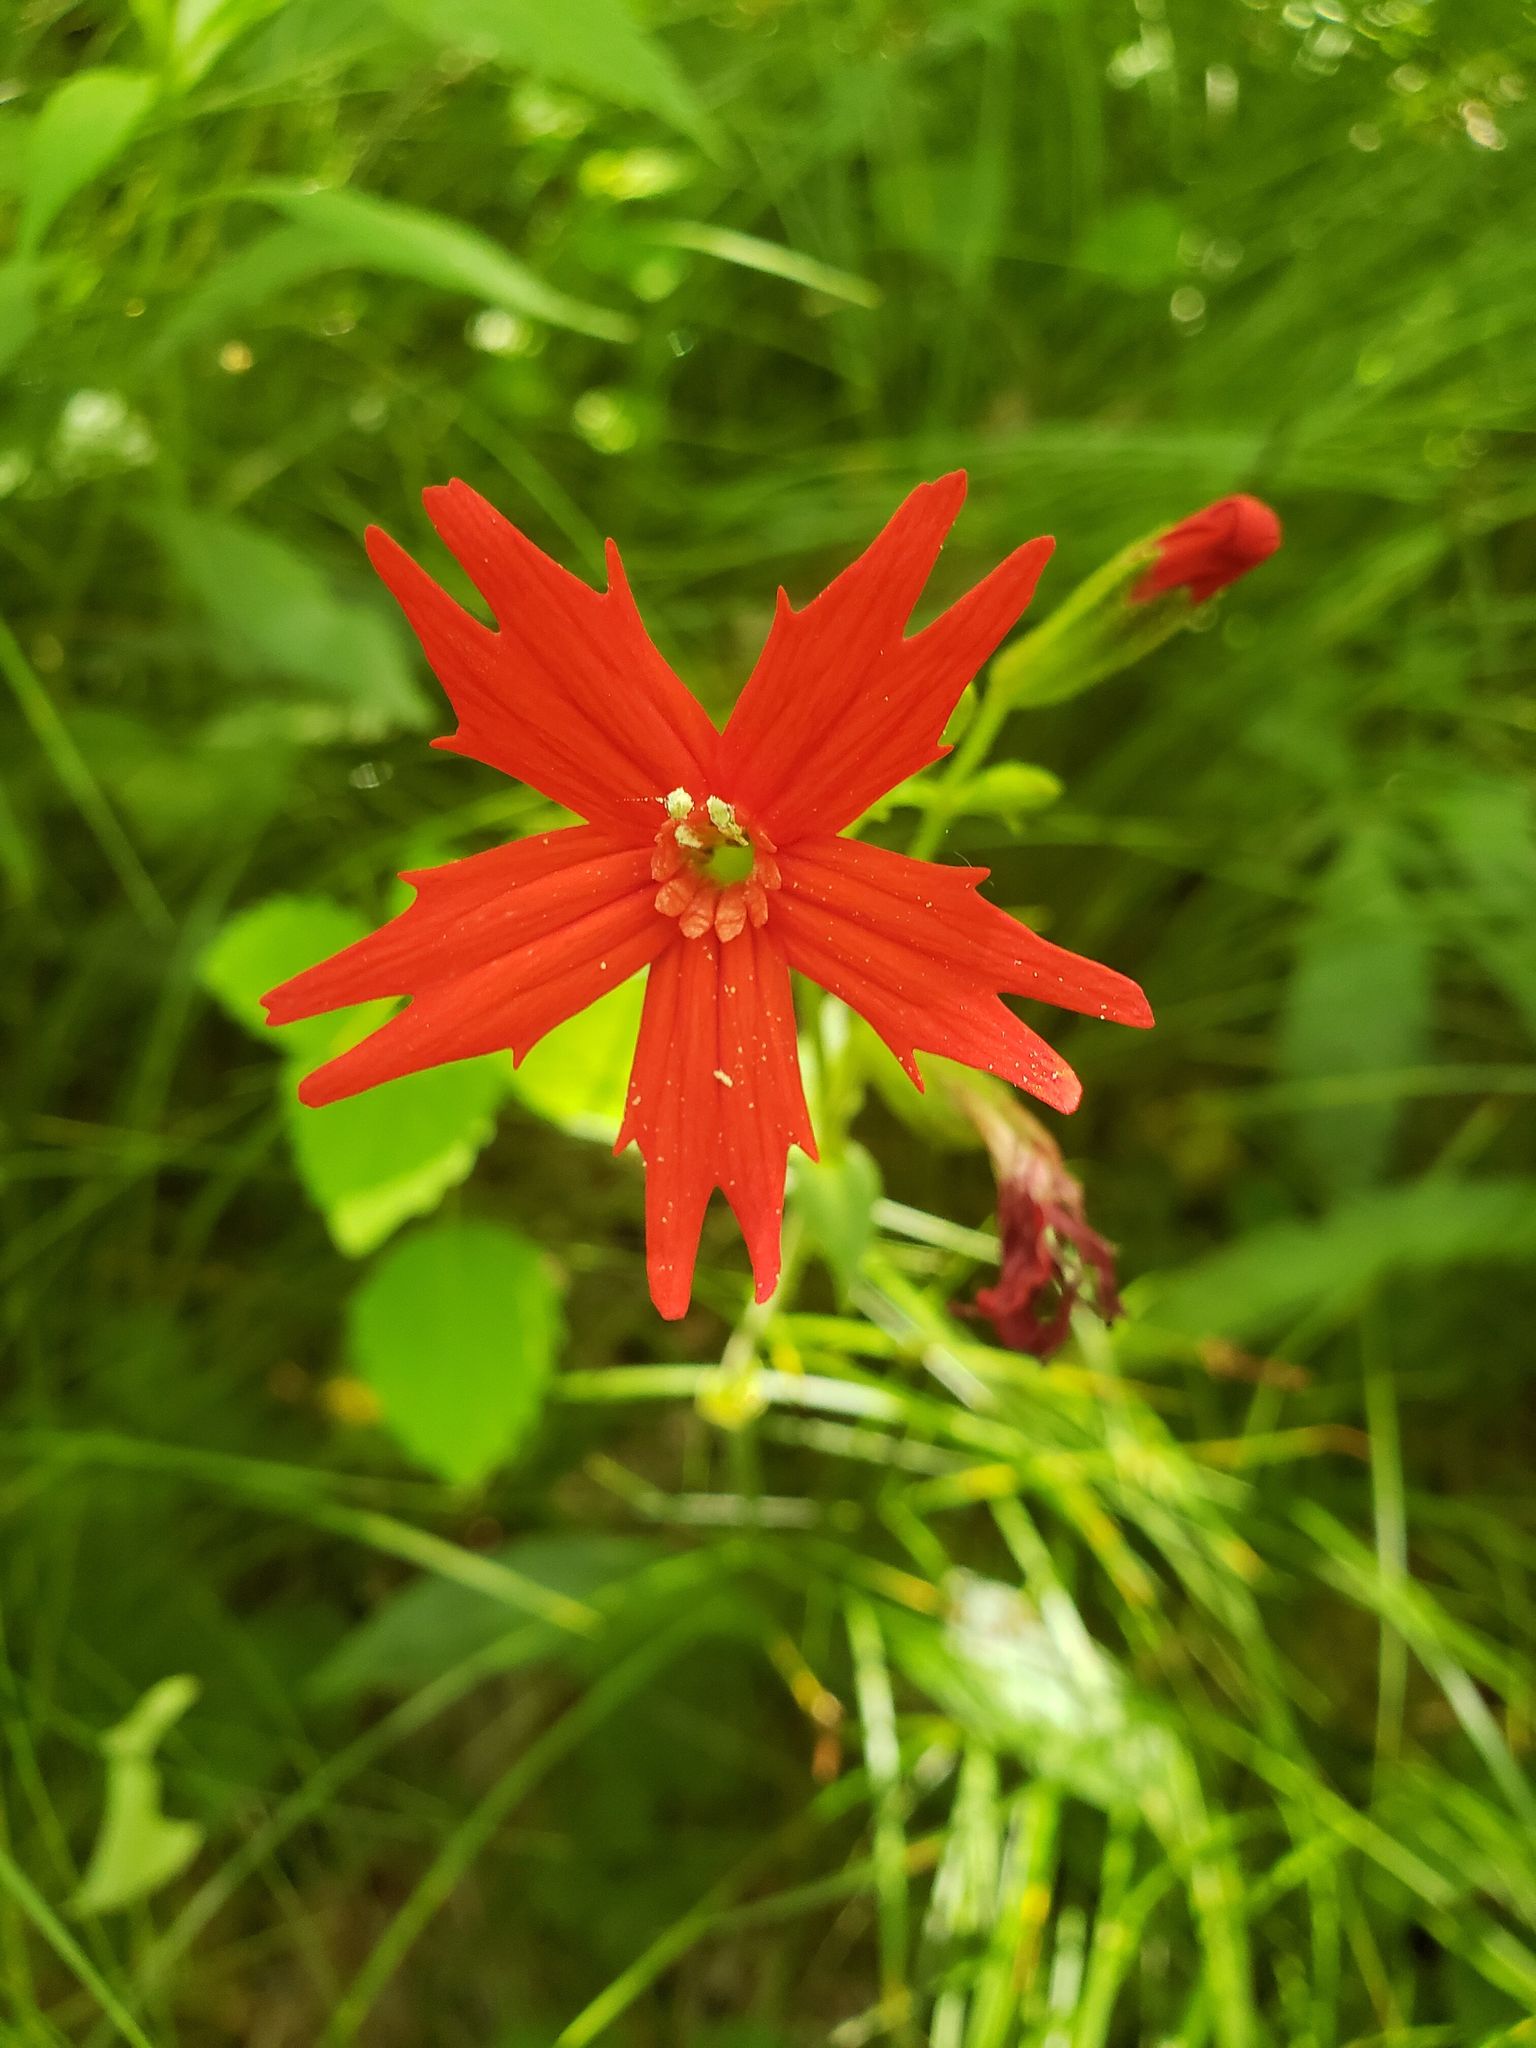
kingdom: Plantae
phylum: Tracheophyta
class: Magnoliopsida
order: Caryophyllales
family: Caryophyllaceae
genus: Silene
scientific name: Silene virginica
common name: Fire-pink
